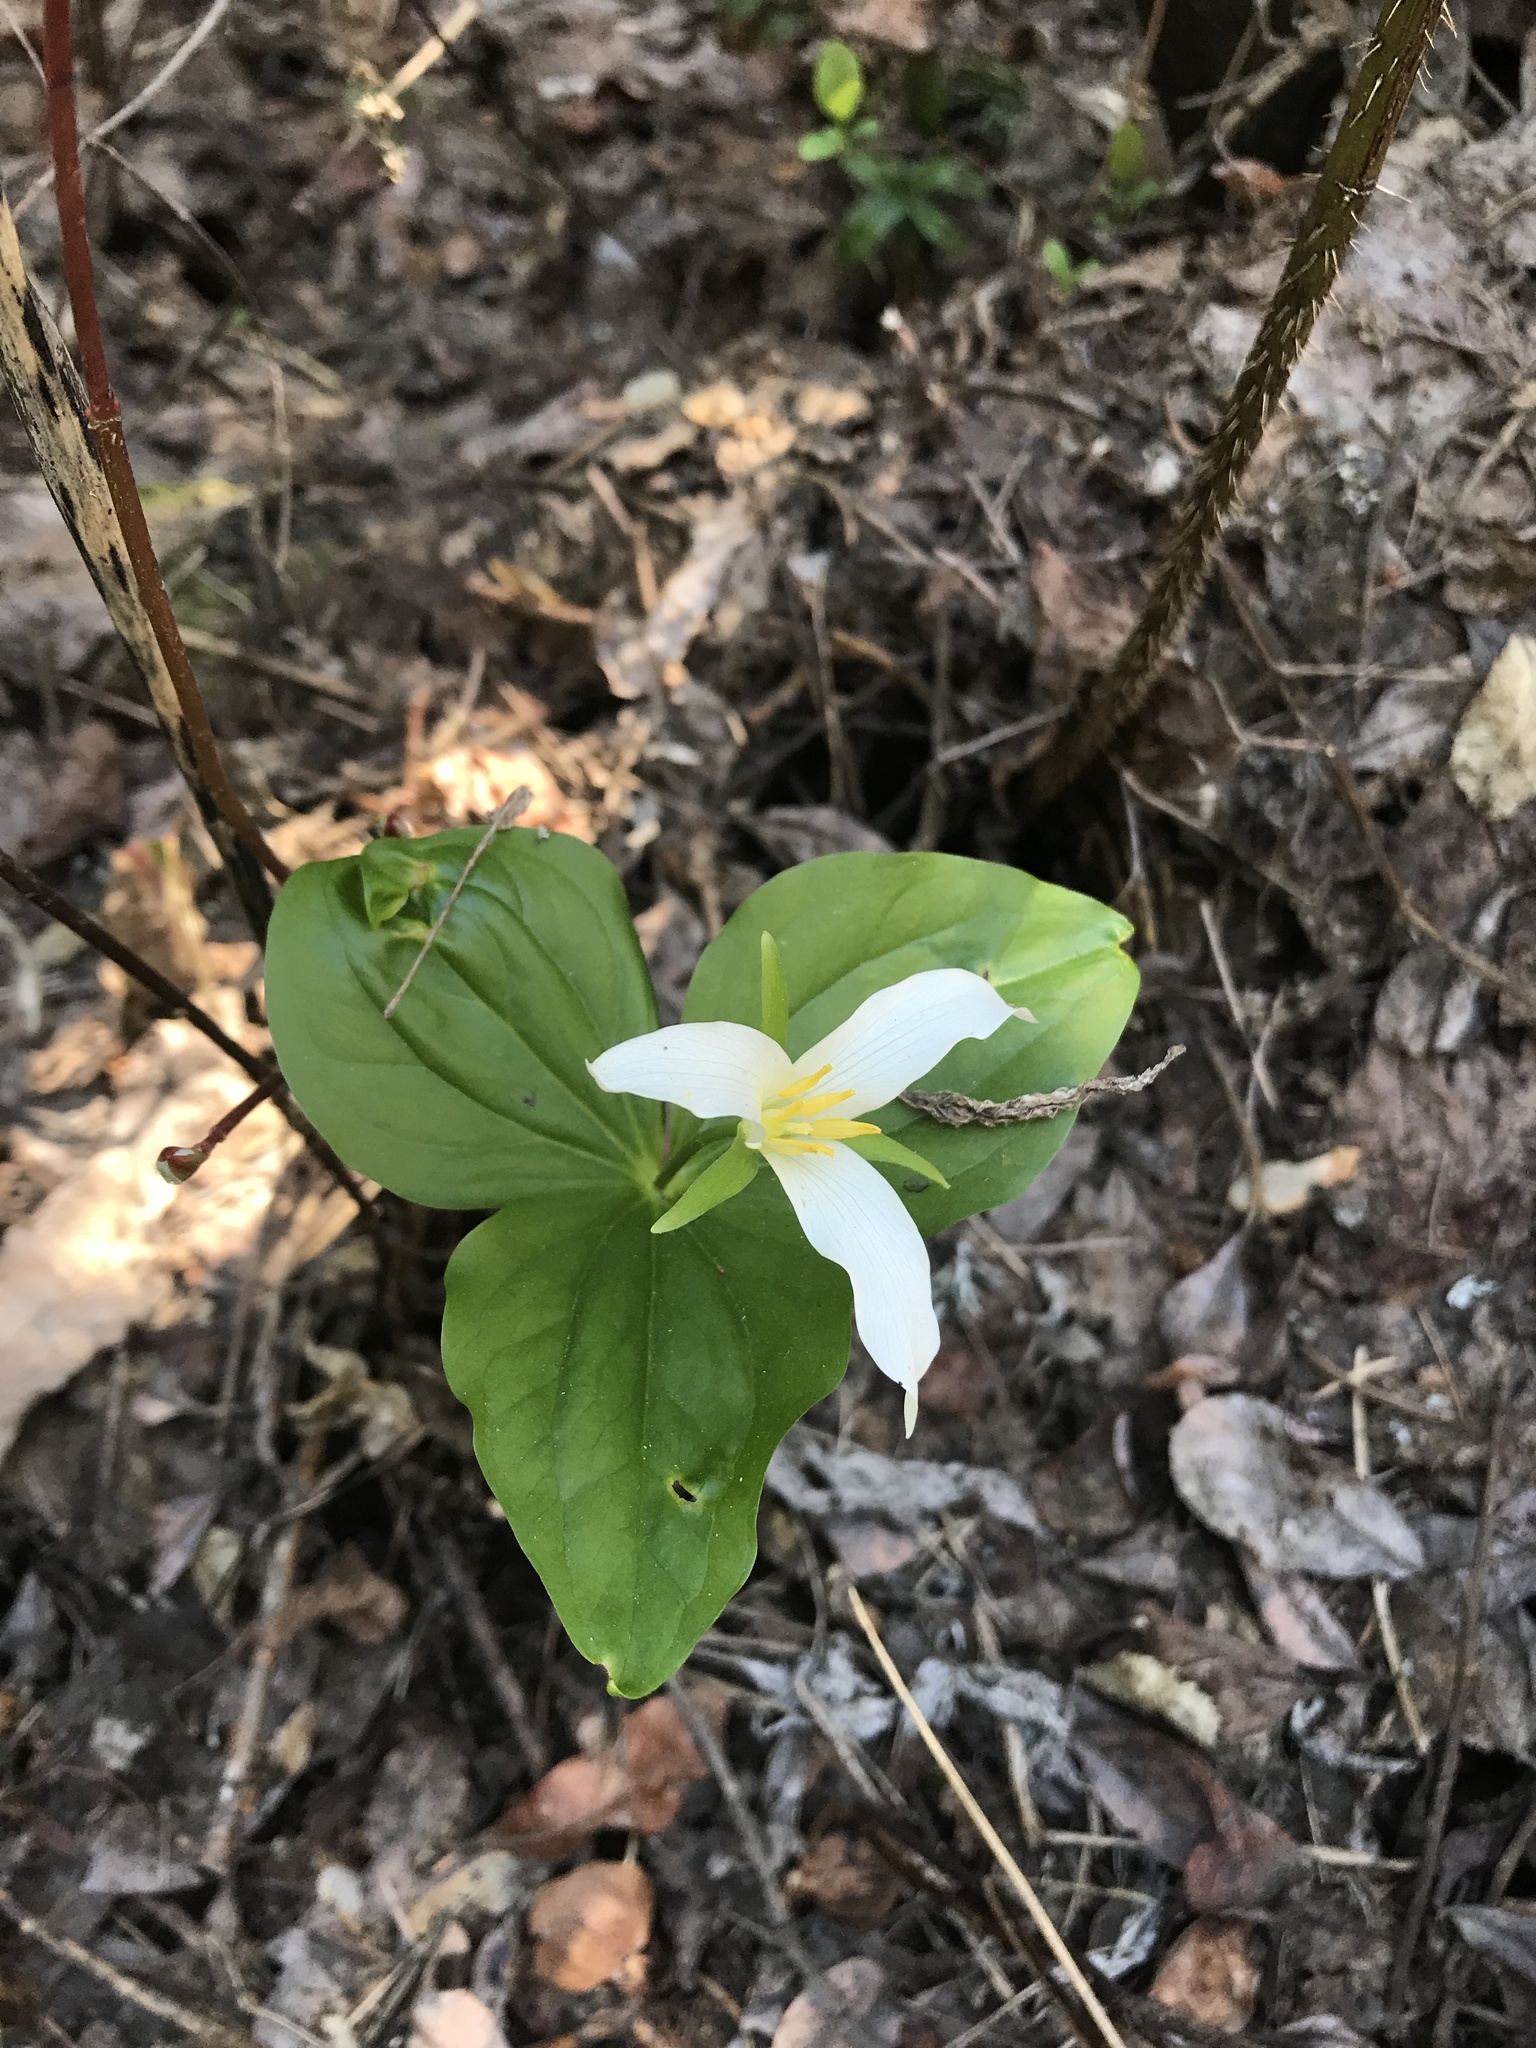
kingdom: Plantae
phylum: Tracheophyta
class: Liliopsida
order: Liliales
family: Melanthiaceae
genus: Trillium
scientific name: Trillium ovatum
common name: Pacific trillium
